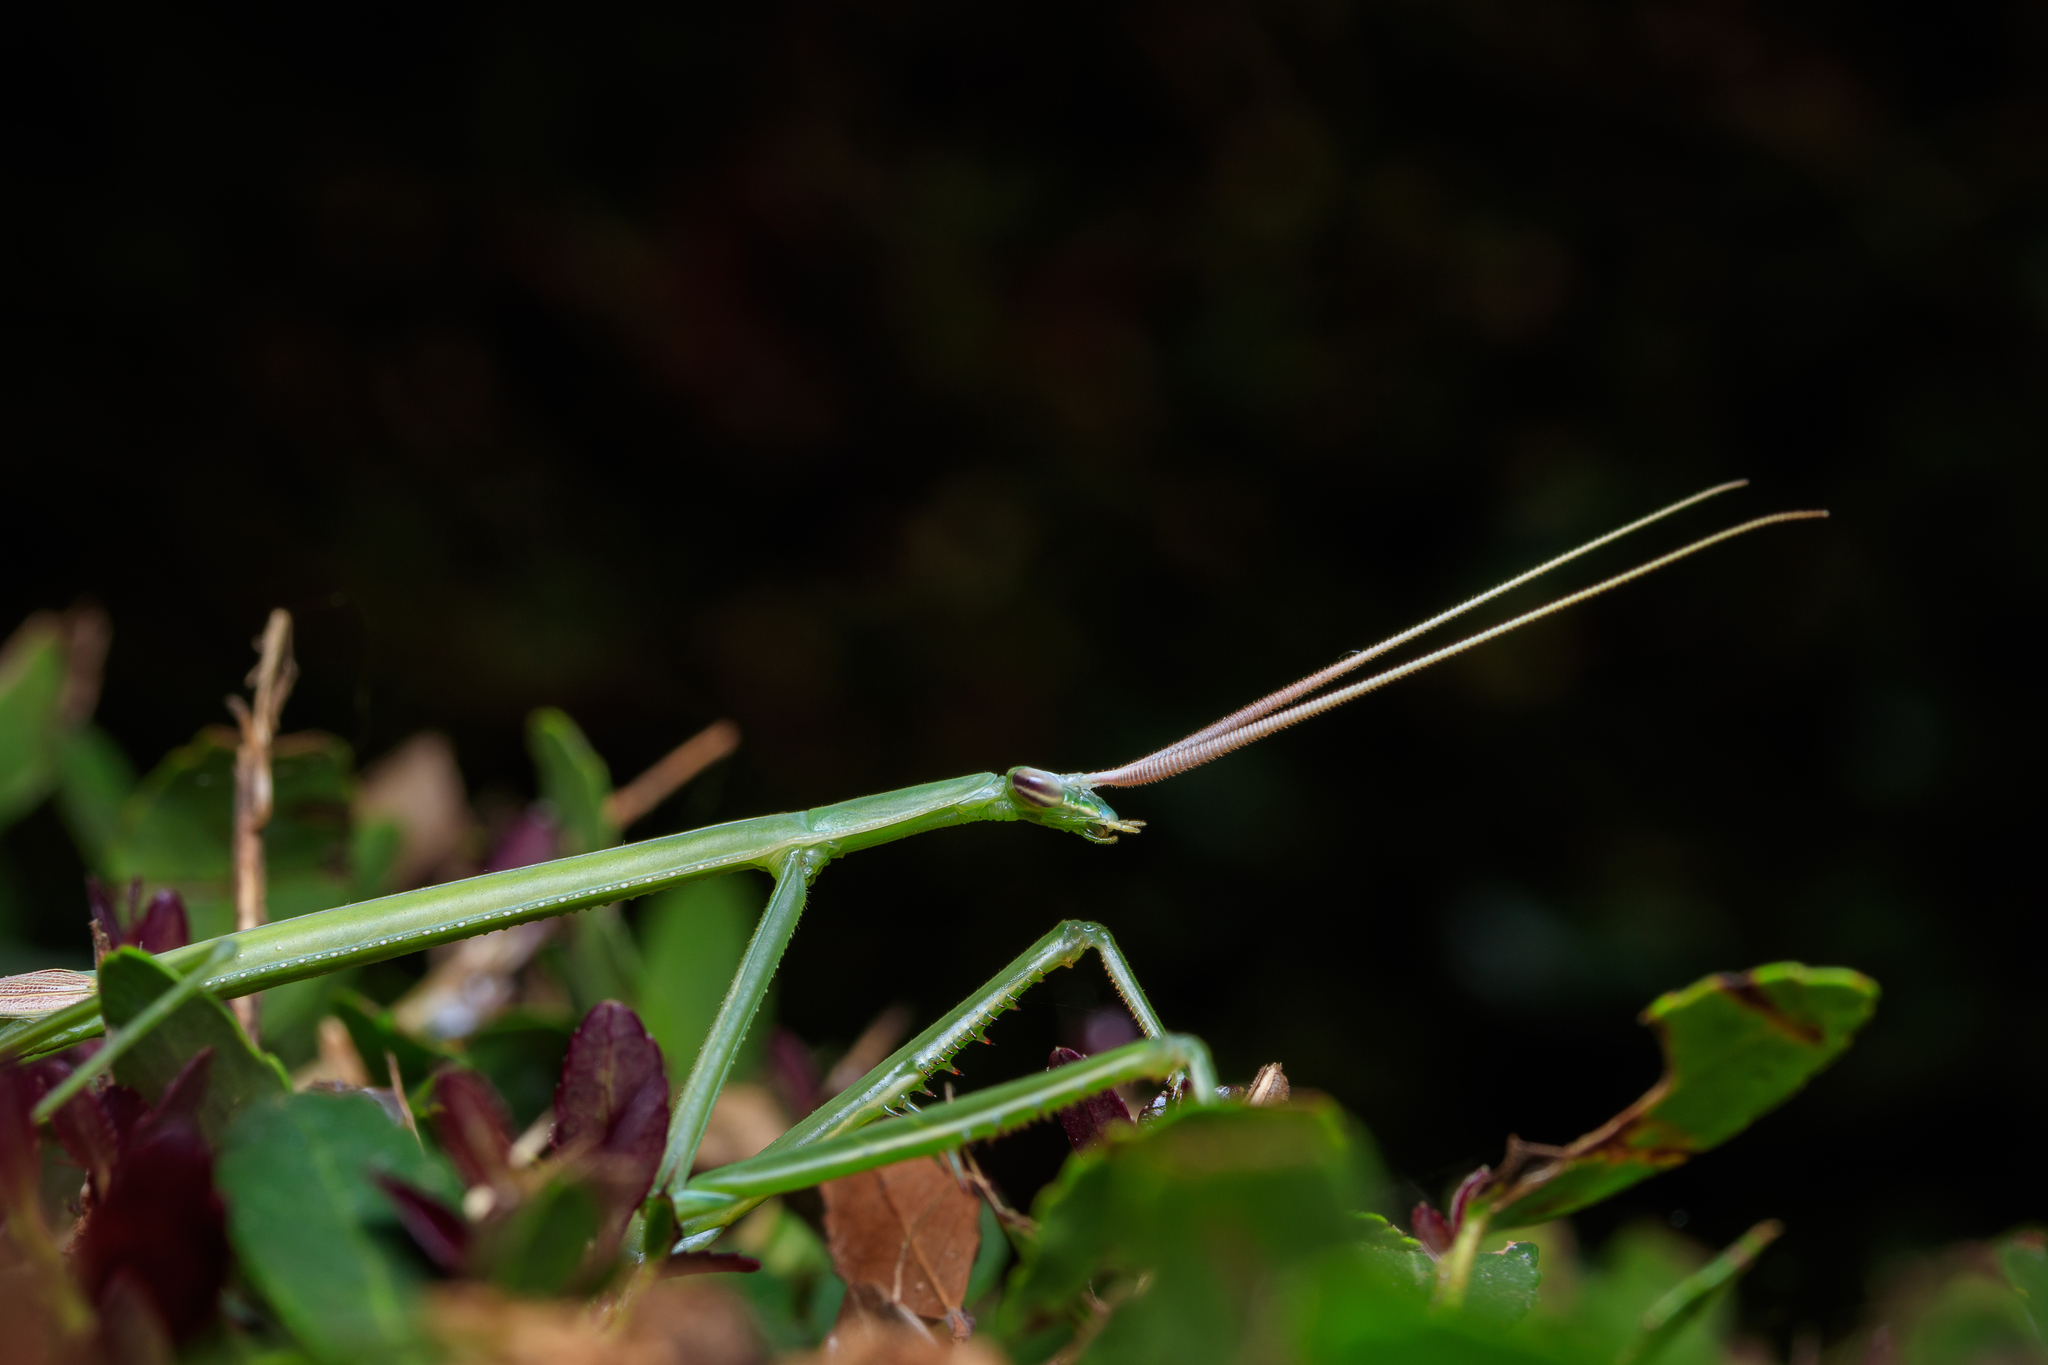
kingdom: Animalia
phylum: Arthropoda
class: Insecta
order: Mantodea
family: Coptopterygidae
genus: Brunneria
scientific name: Brunneria borealis
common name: Mantis
